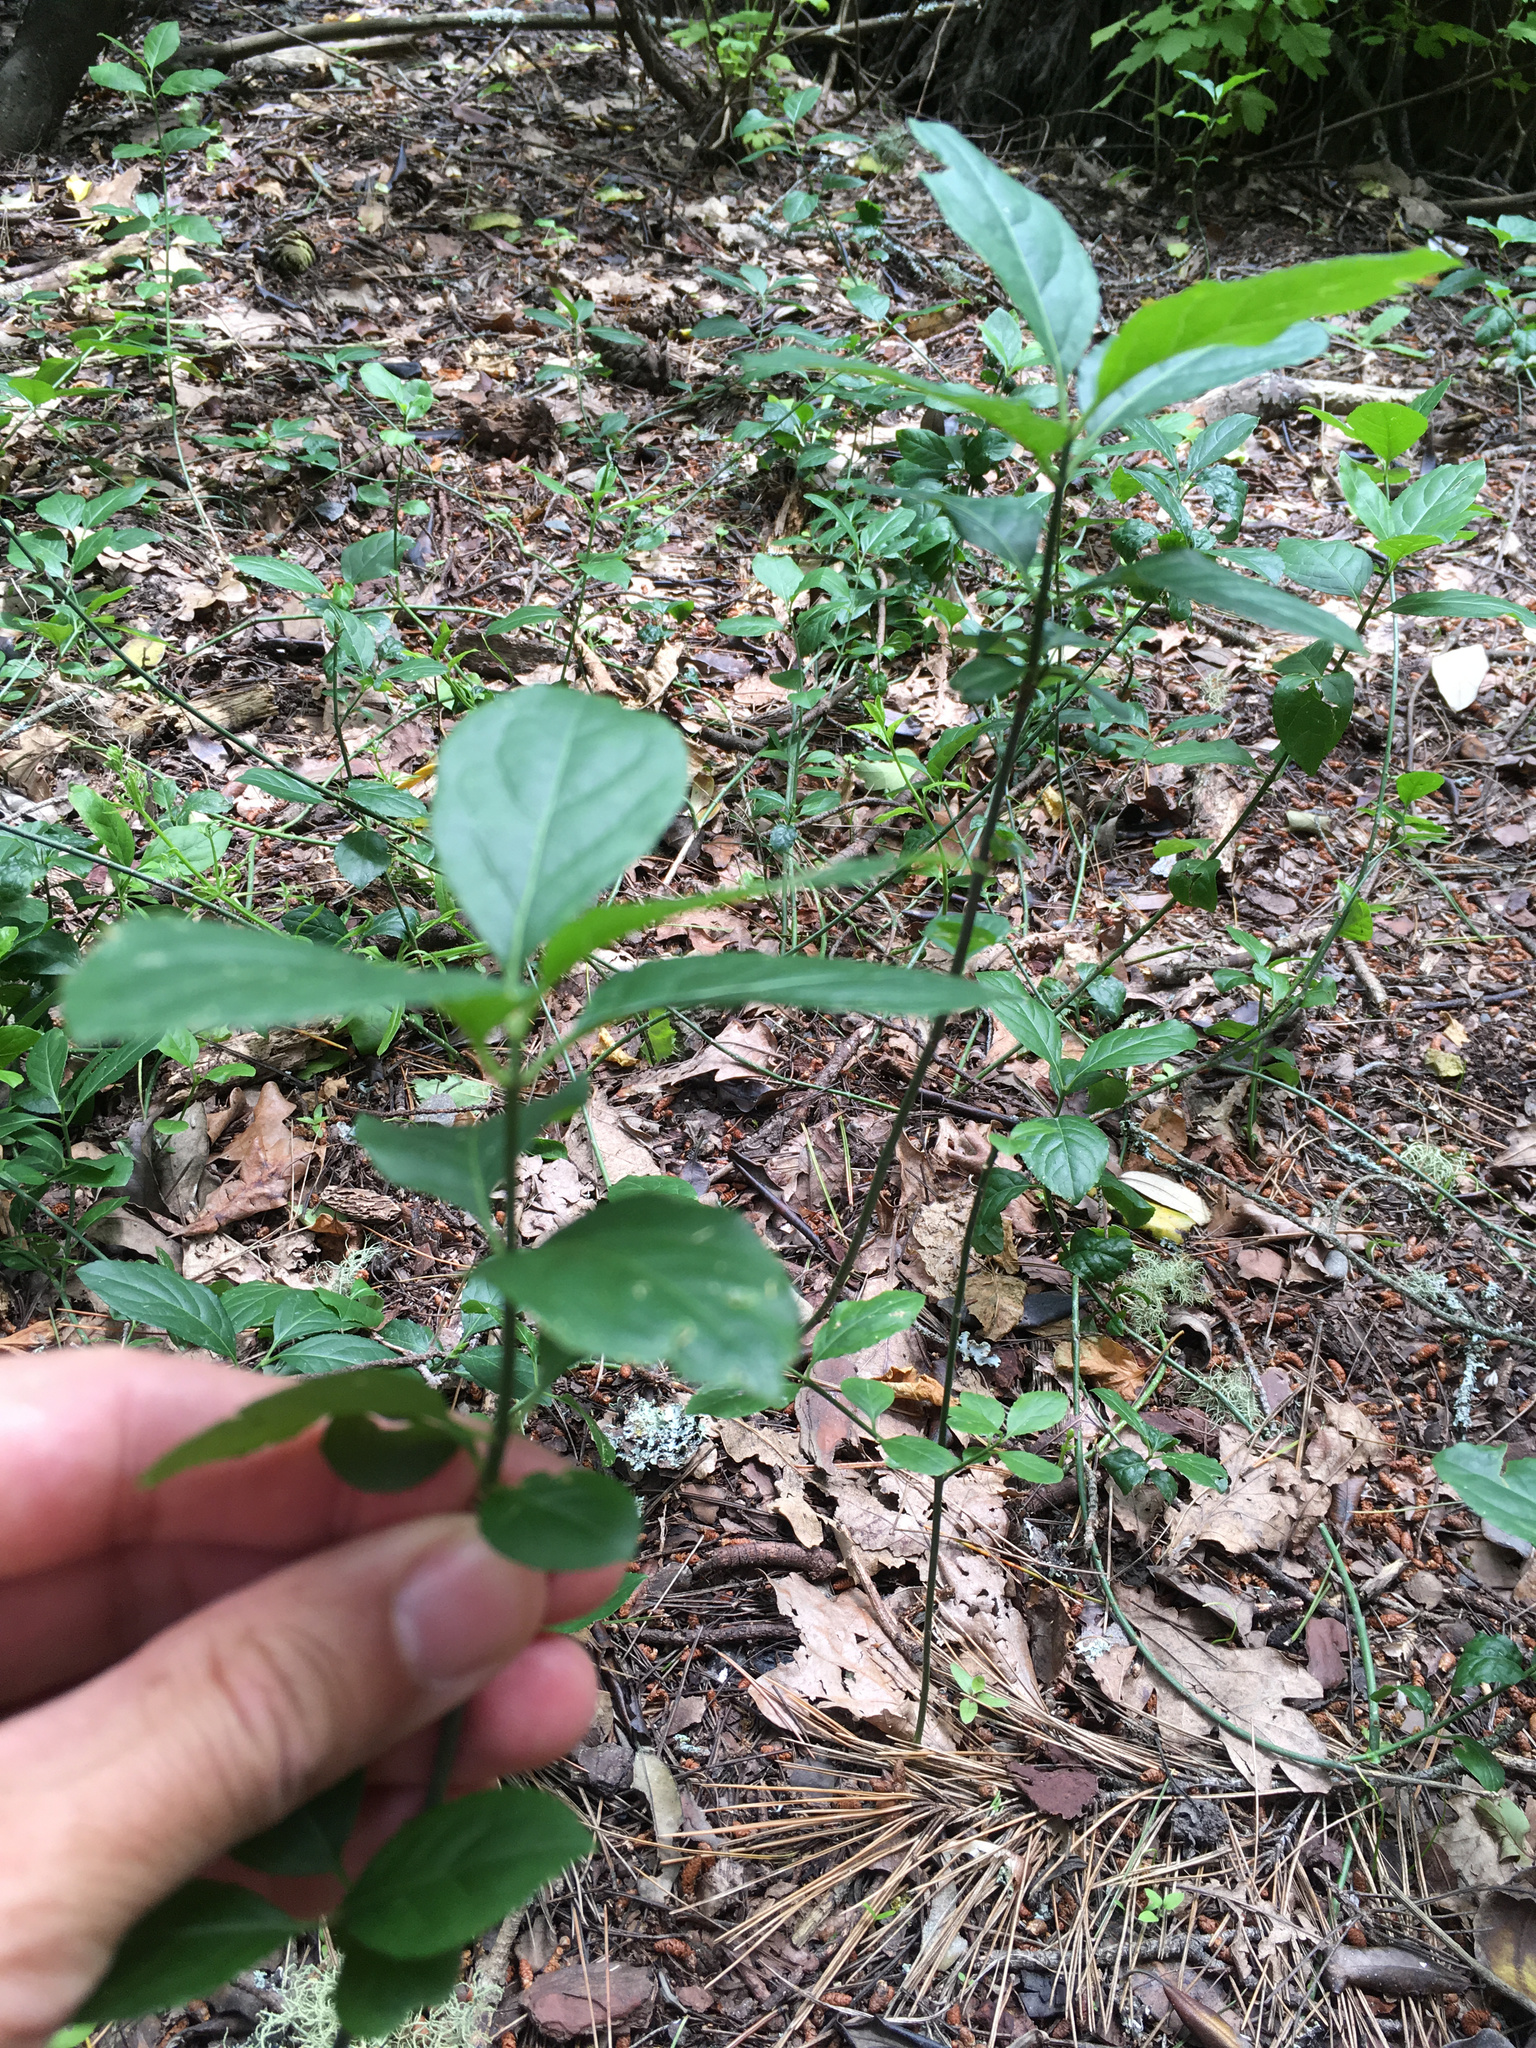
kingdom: Plantae
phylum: Tracheophyta
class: Magnoliopsida
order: Celastrales
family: Celastraceae
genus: Euonymus
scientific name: Euonymus europaeus
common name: Spindle
